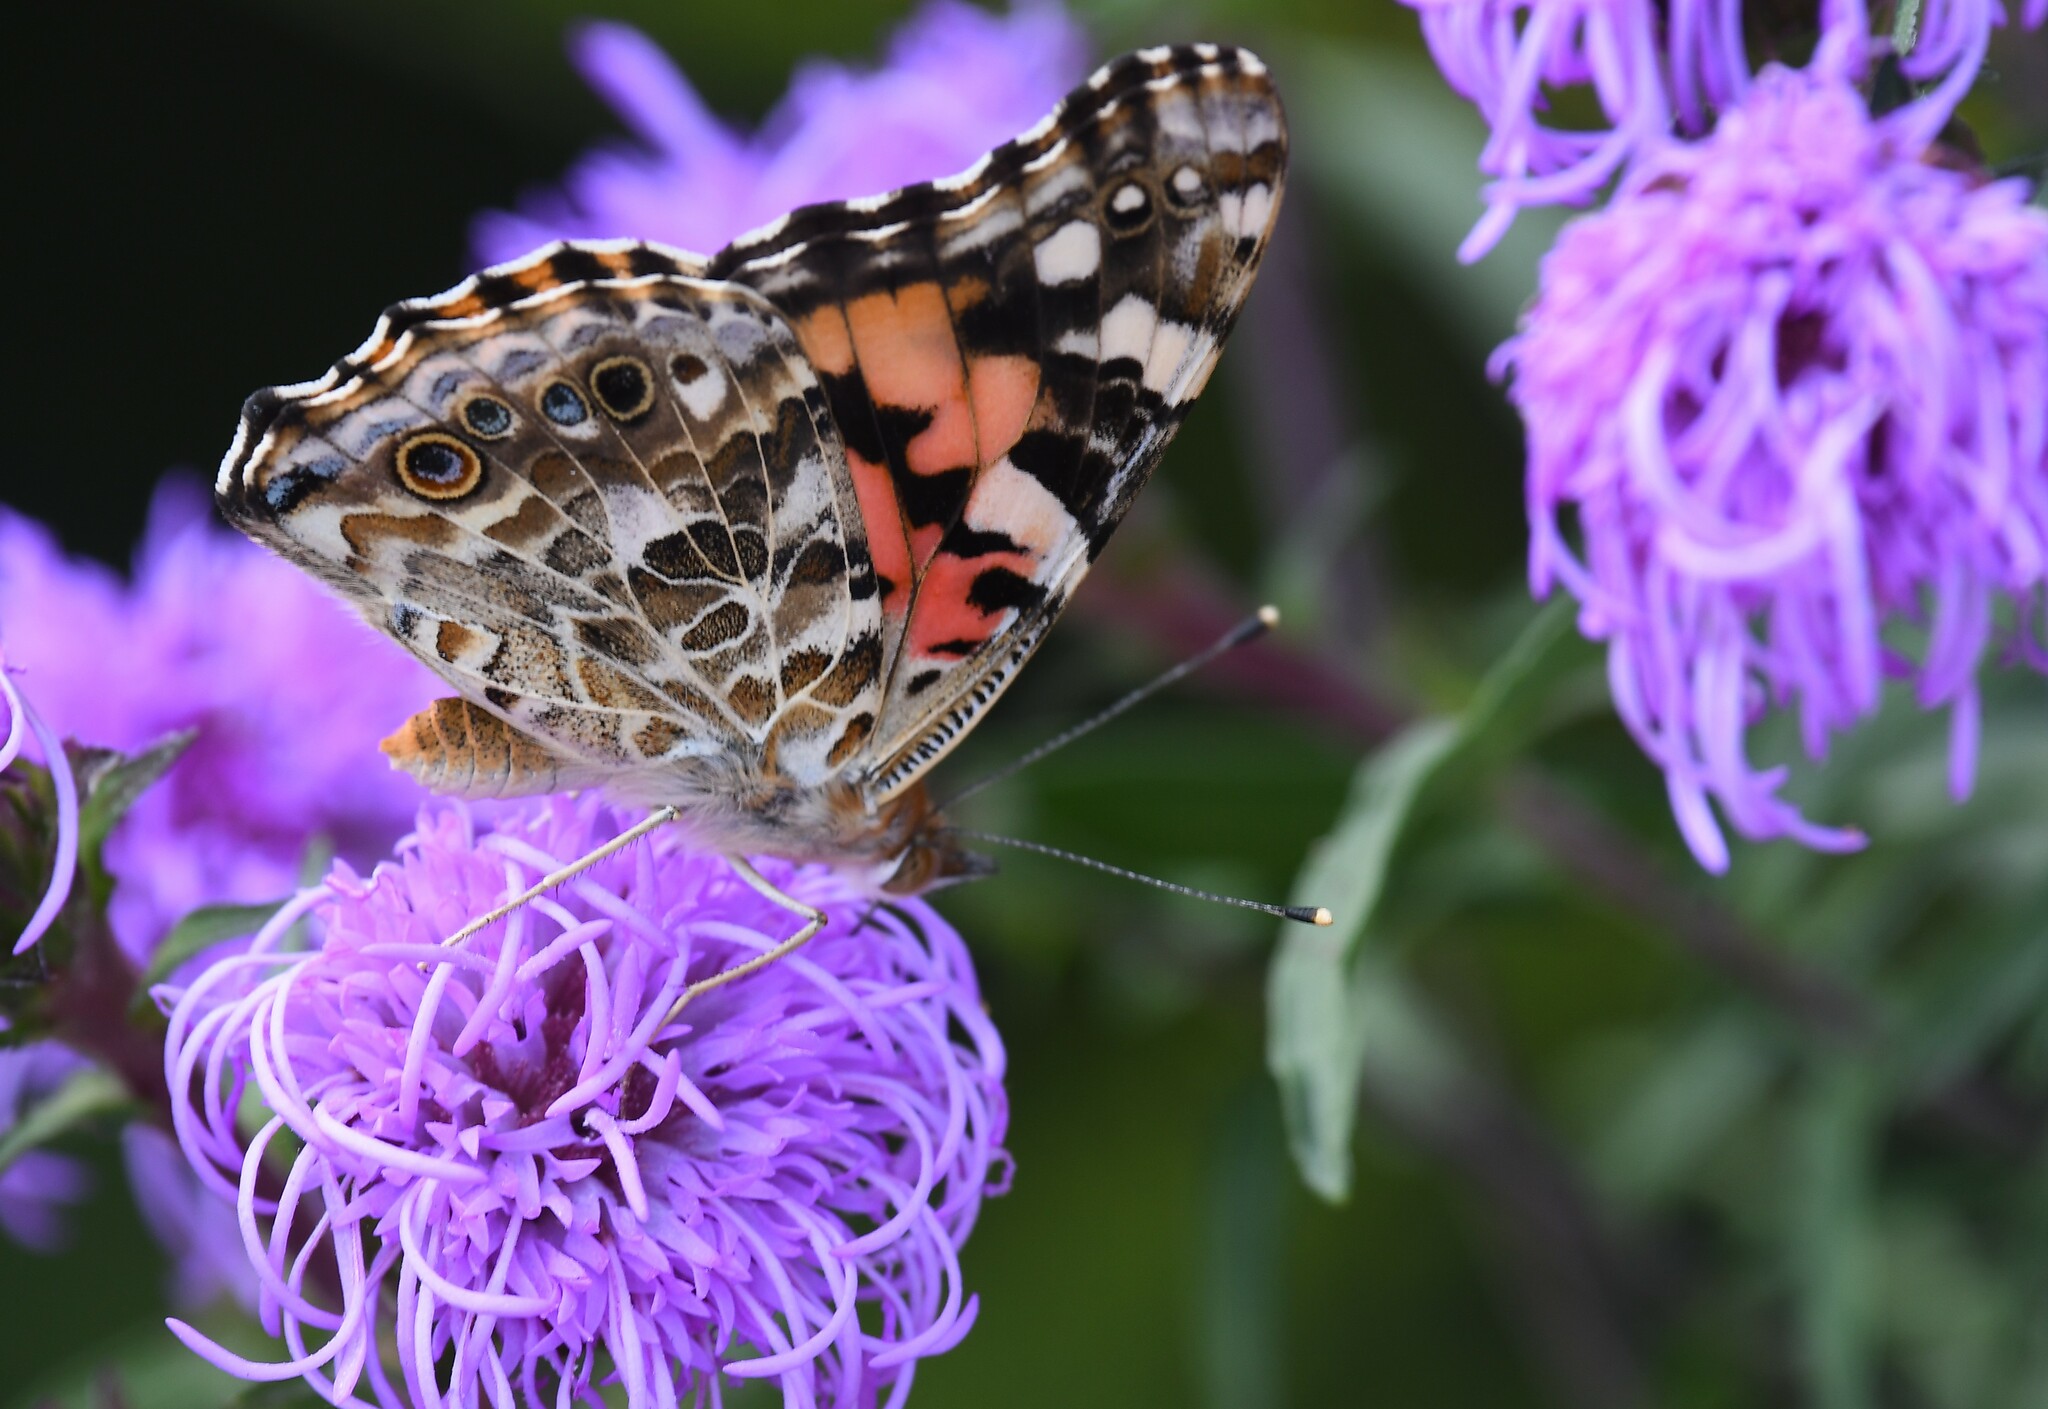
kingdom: Animalia
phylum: Arthropoda
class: Insecta
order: Lepidoptera
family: Nymphalidae
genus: Vanessa
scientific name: Vanessa cardui
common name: Painted lady
